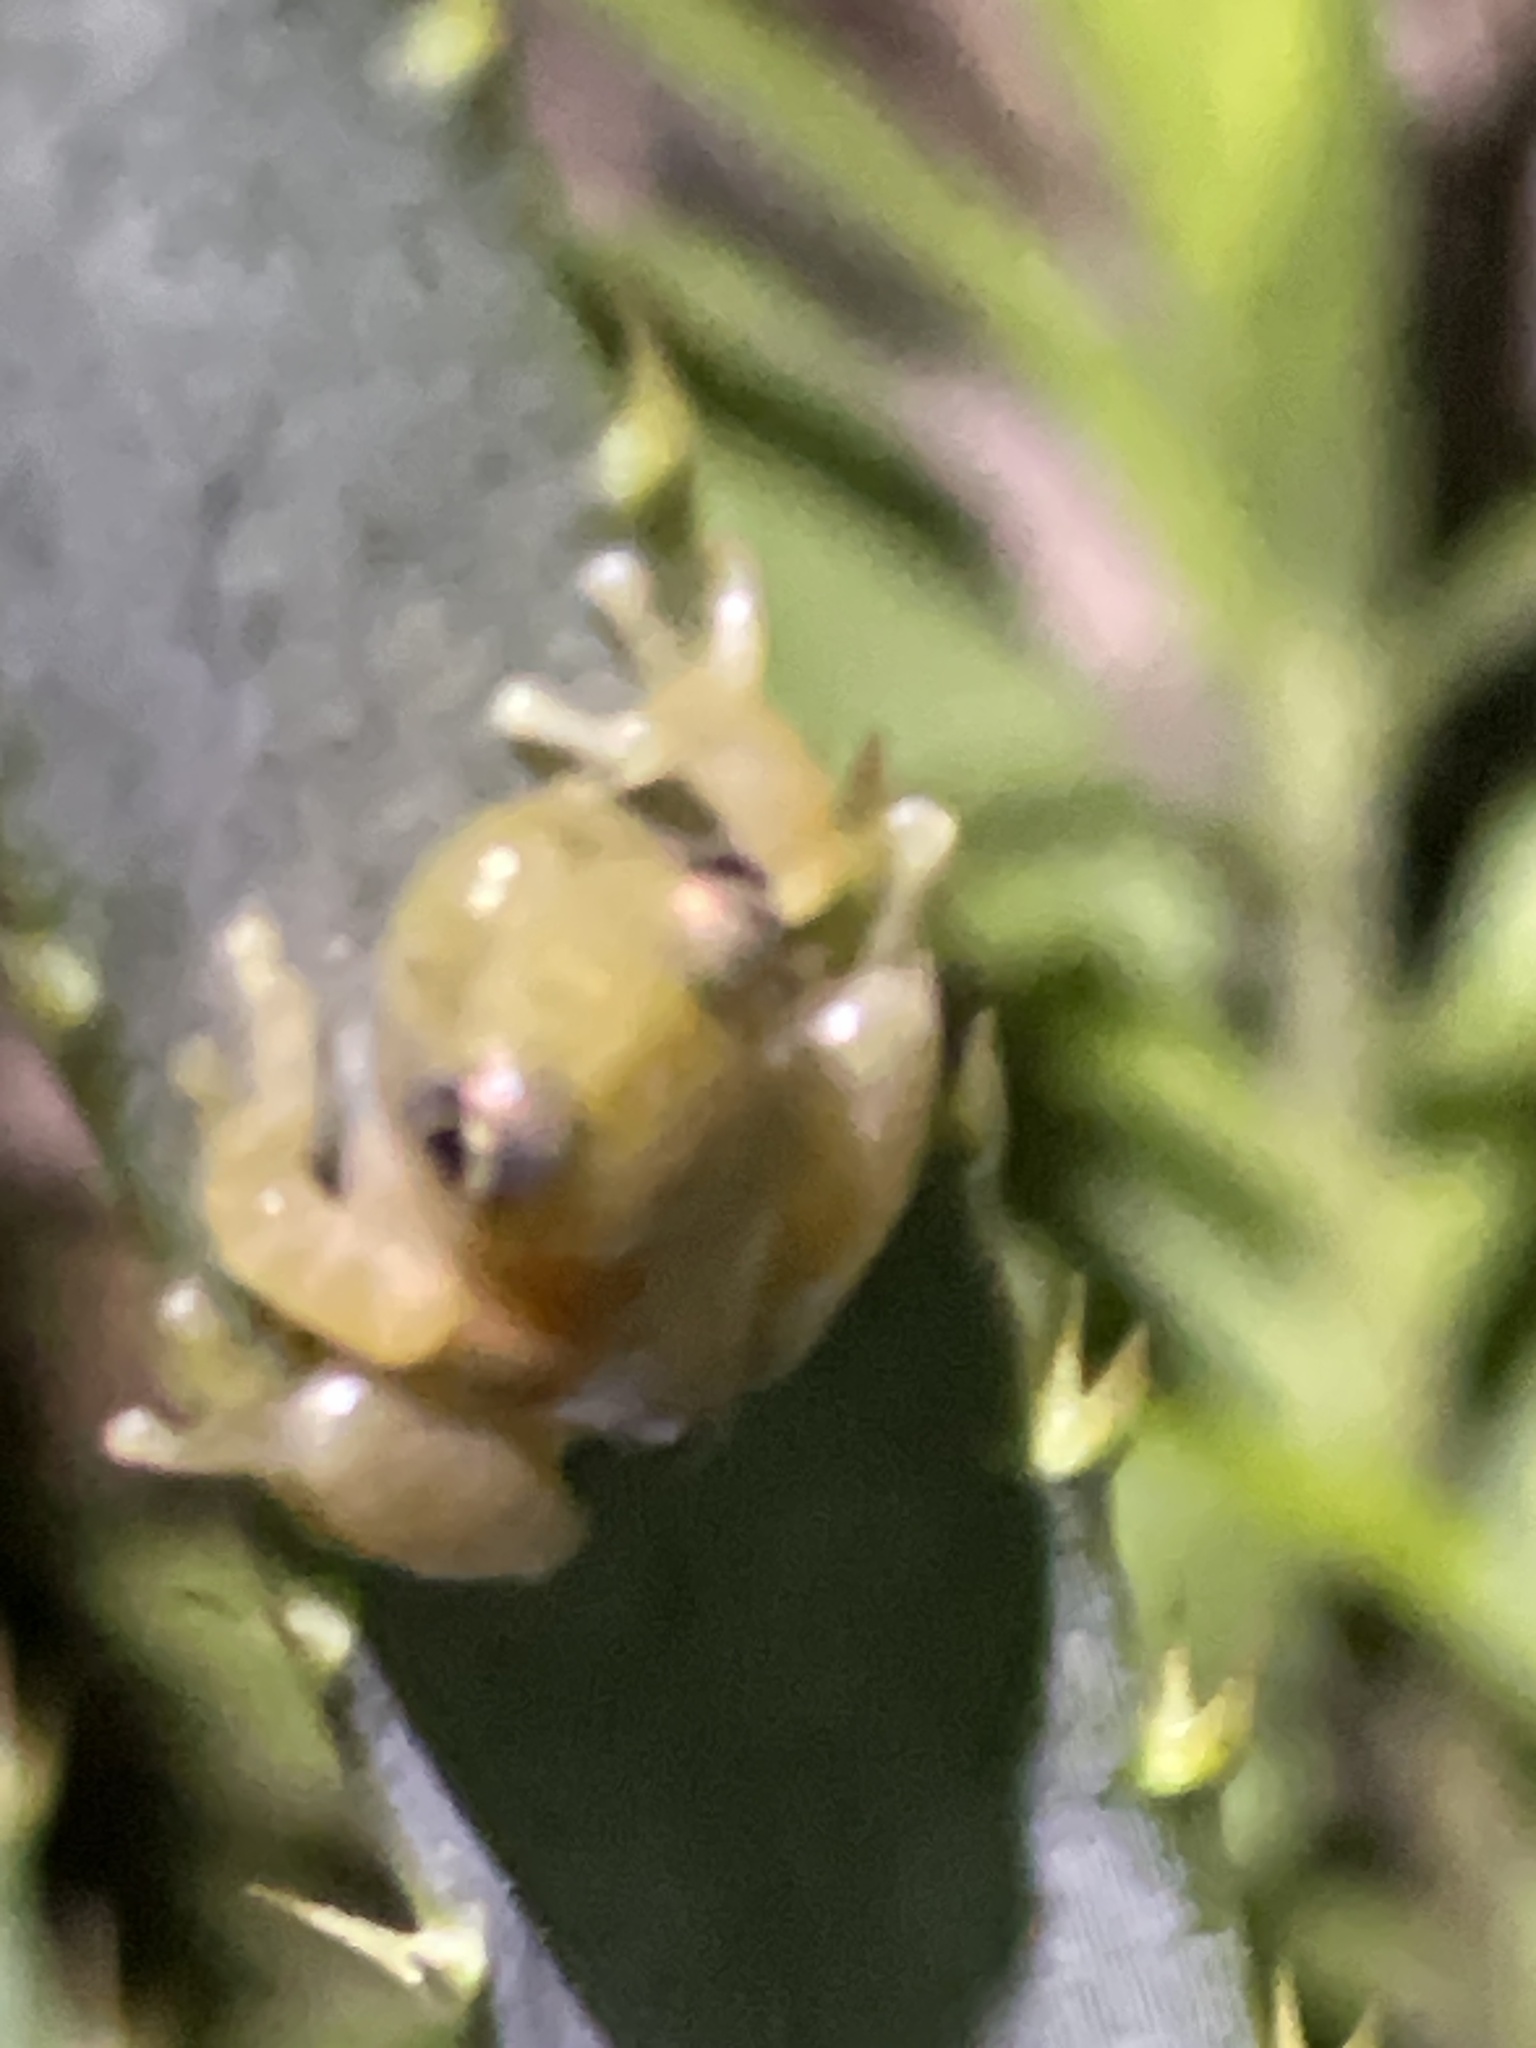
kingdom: Animalia
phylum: Chordata
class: Amphibia
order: Anura
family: Hylidae
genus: Dendropsophus
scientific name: Dendropsophus sanborni
